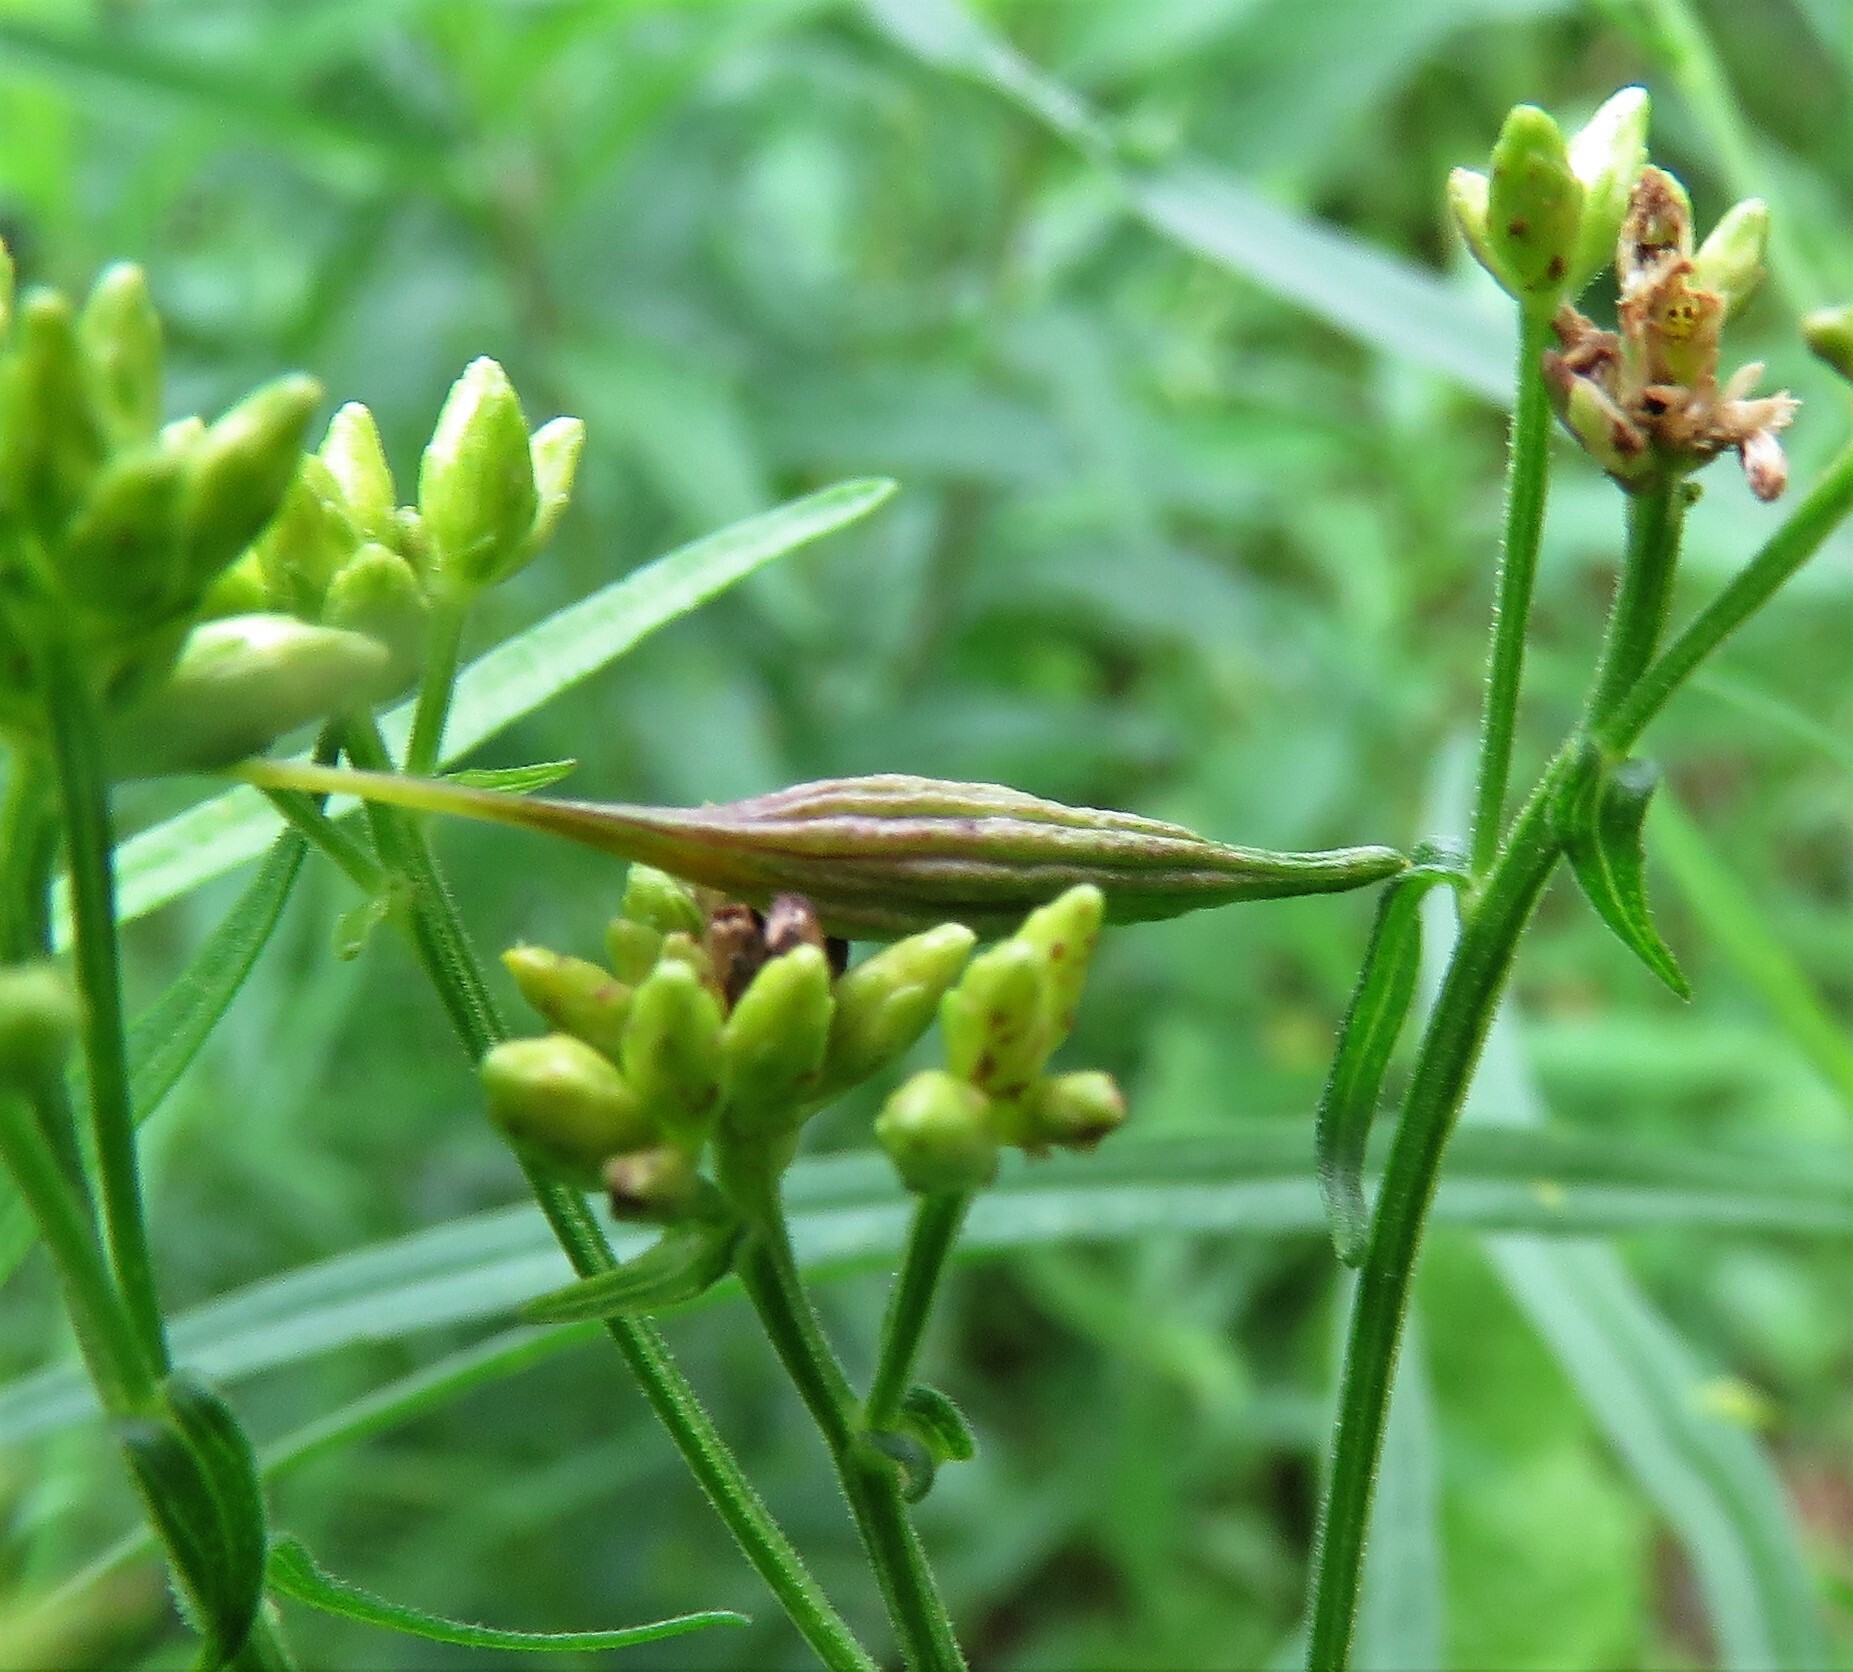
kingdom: Animalia
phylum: Arthropoda
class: Insecta
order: Diptera
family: Cecidomyiidae
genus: Rhopalomyia
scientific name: Rhopalomyia pedicellata
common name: Goldentop pedicellate gall midge
